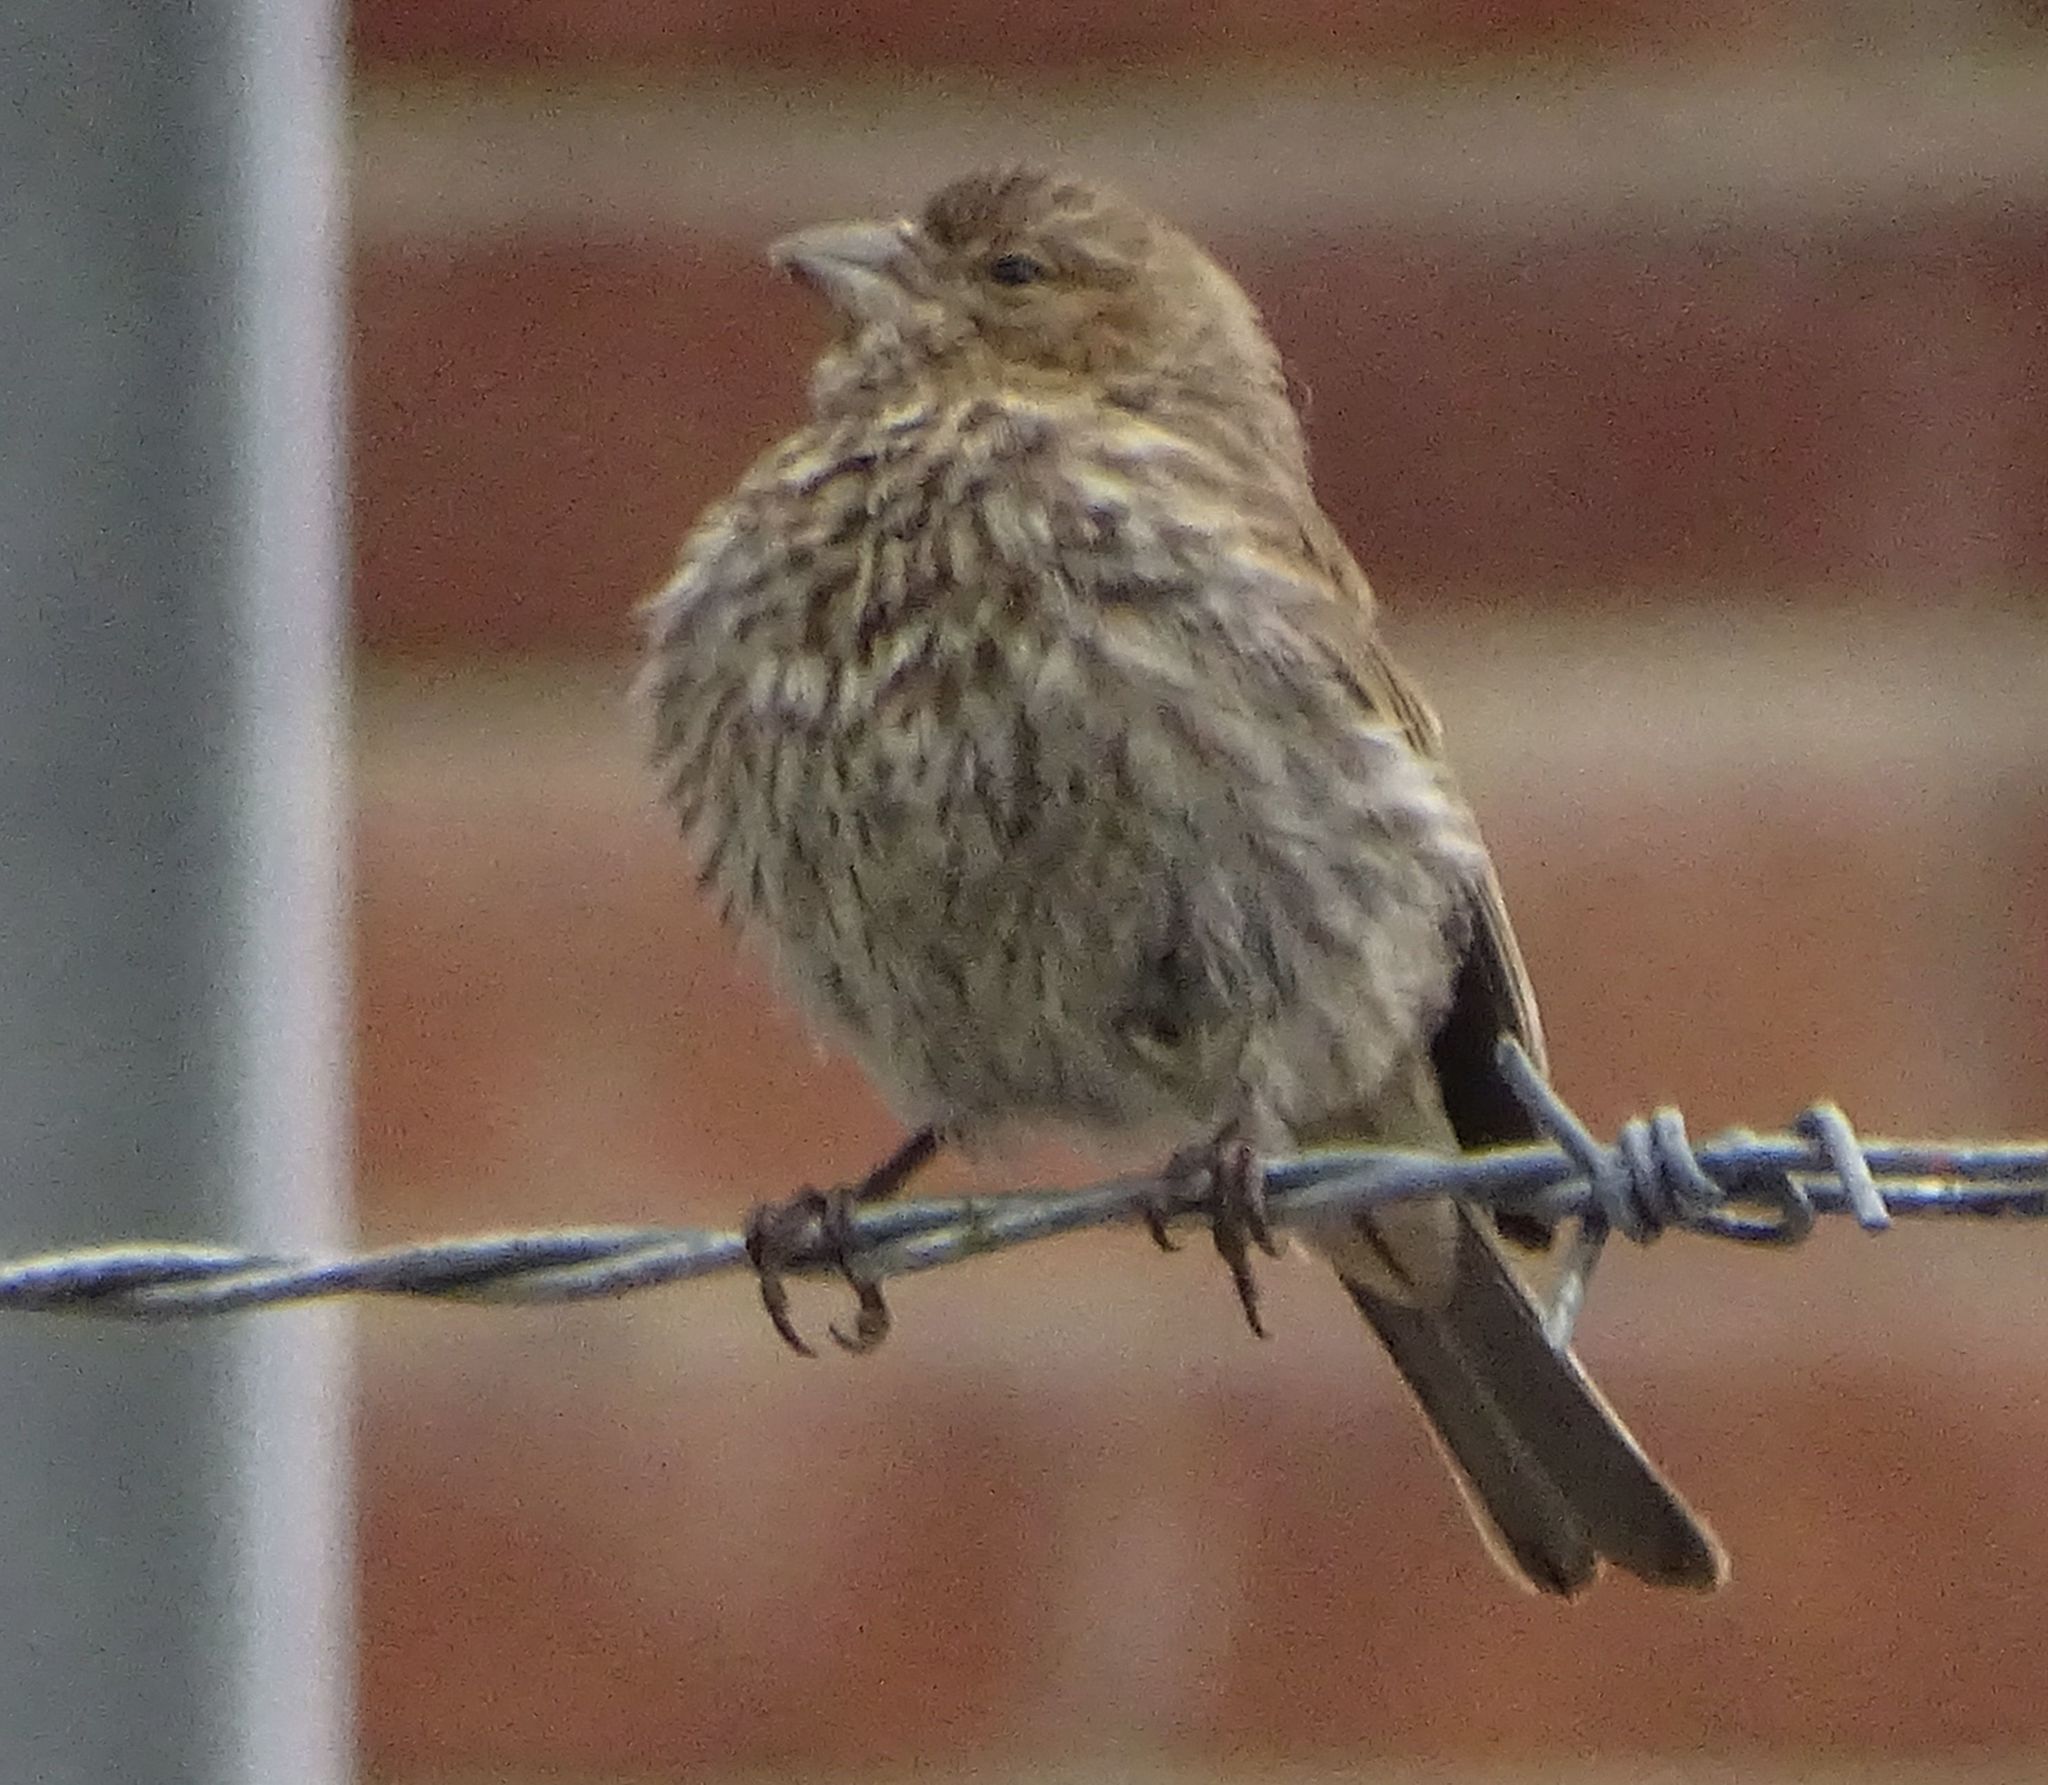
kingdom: Animalia
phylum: Chordata
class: Aves
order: Passeriformes
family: Fringillidae
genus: Haemorhous
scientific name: Haemorhous mexicanus
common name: House finch
